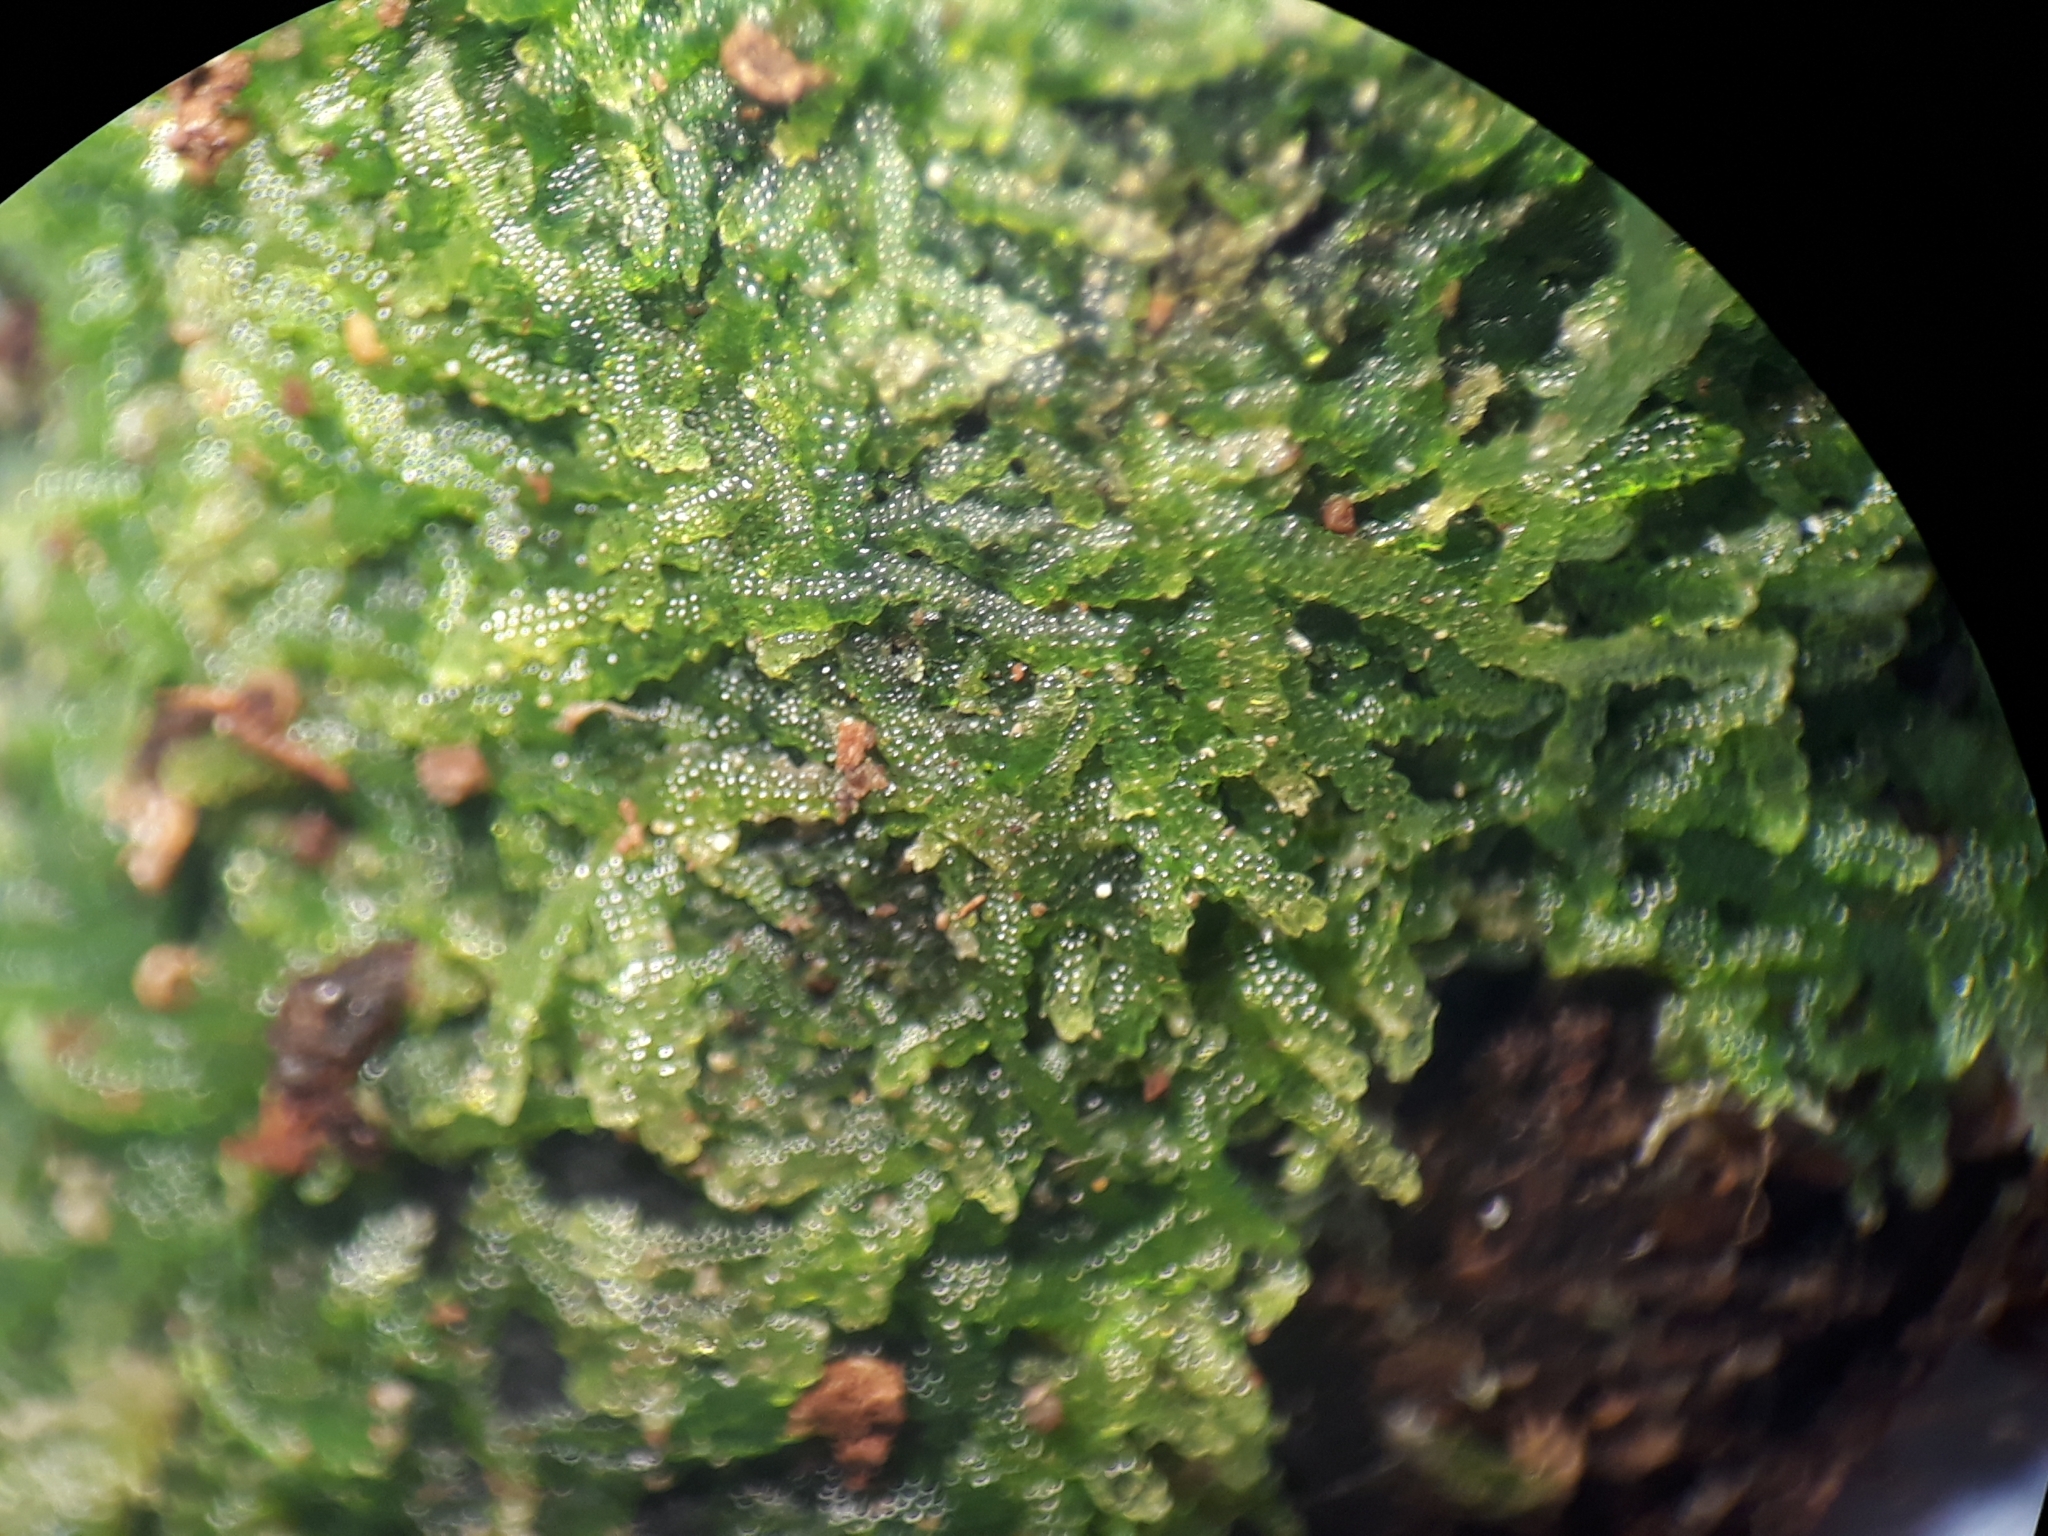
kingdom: Plantae
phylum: Marchantiophyta
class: Jungermanniopsida
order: Jungermanniales
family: Lepidoziaceae
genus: Zoopsis
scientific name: Zoopsis argentea
